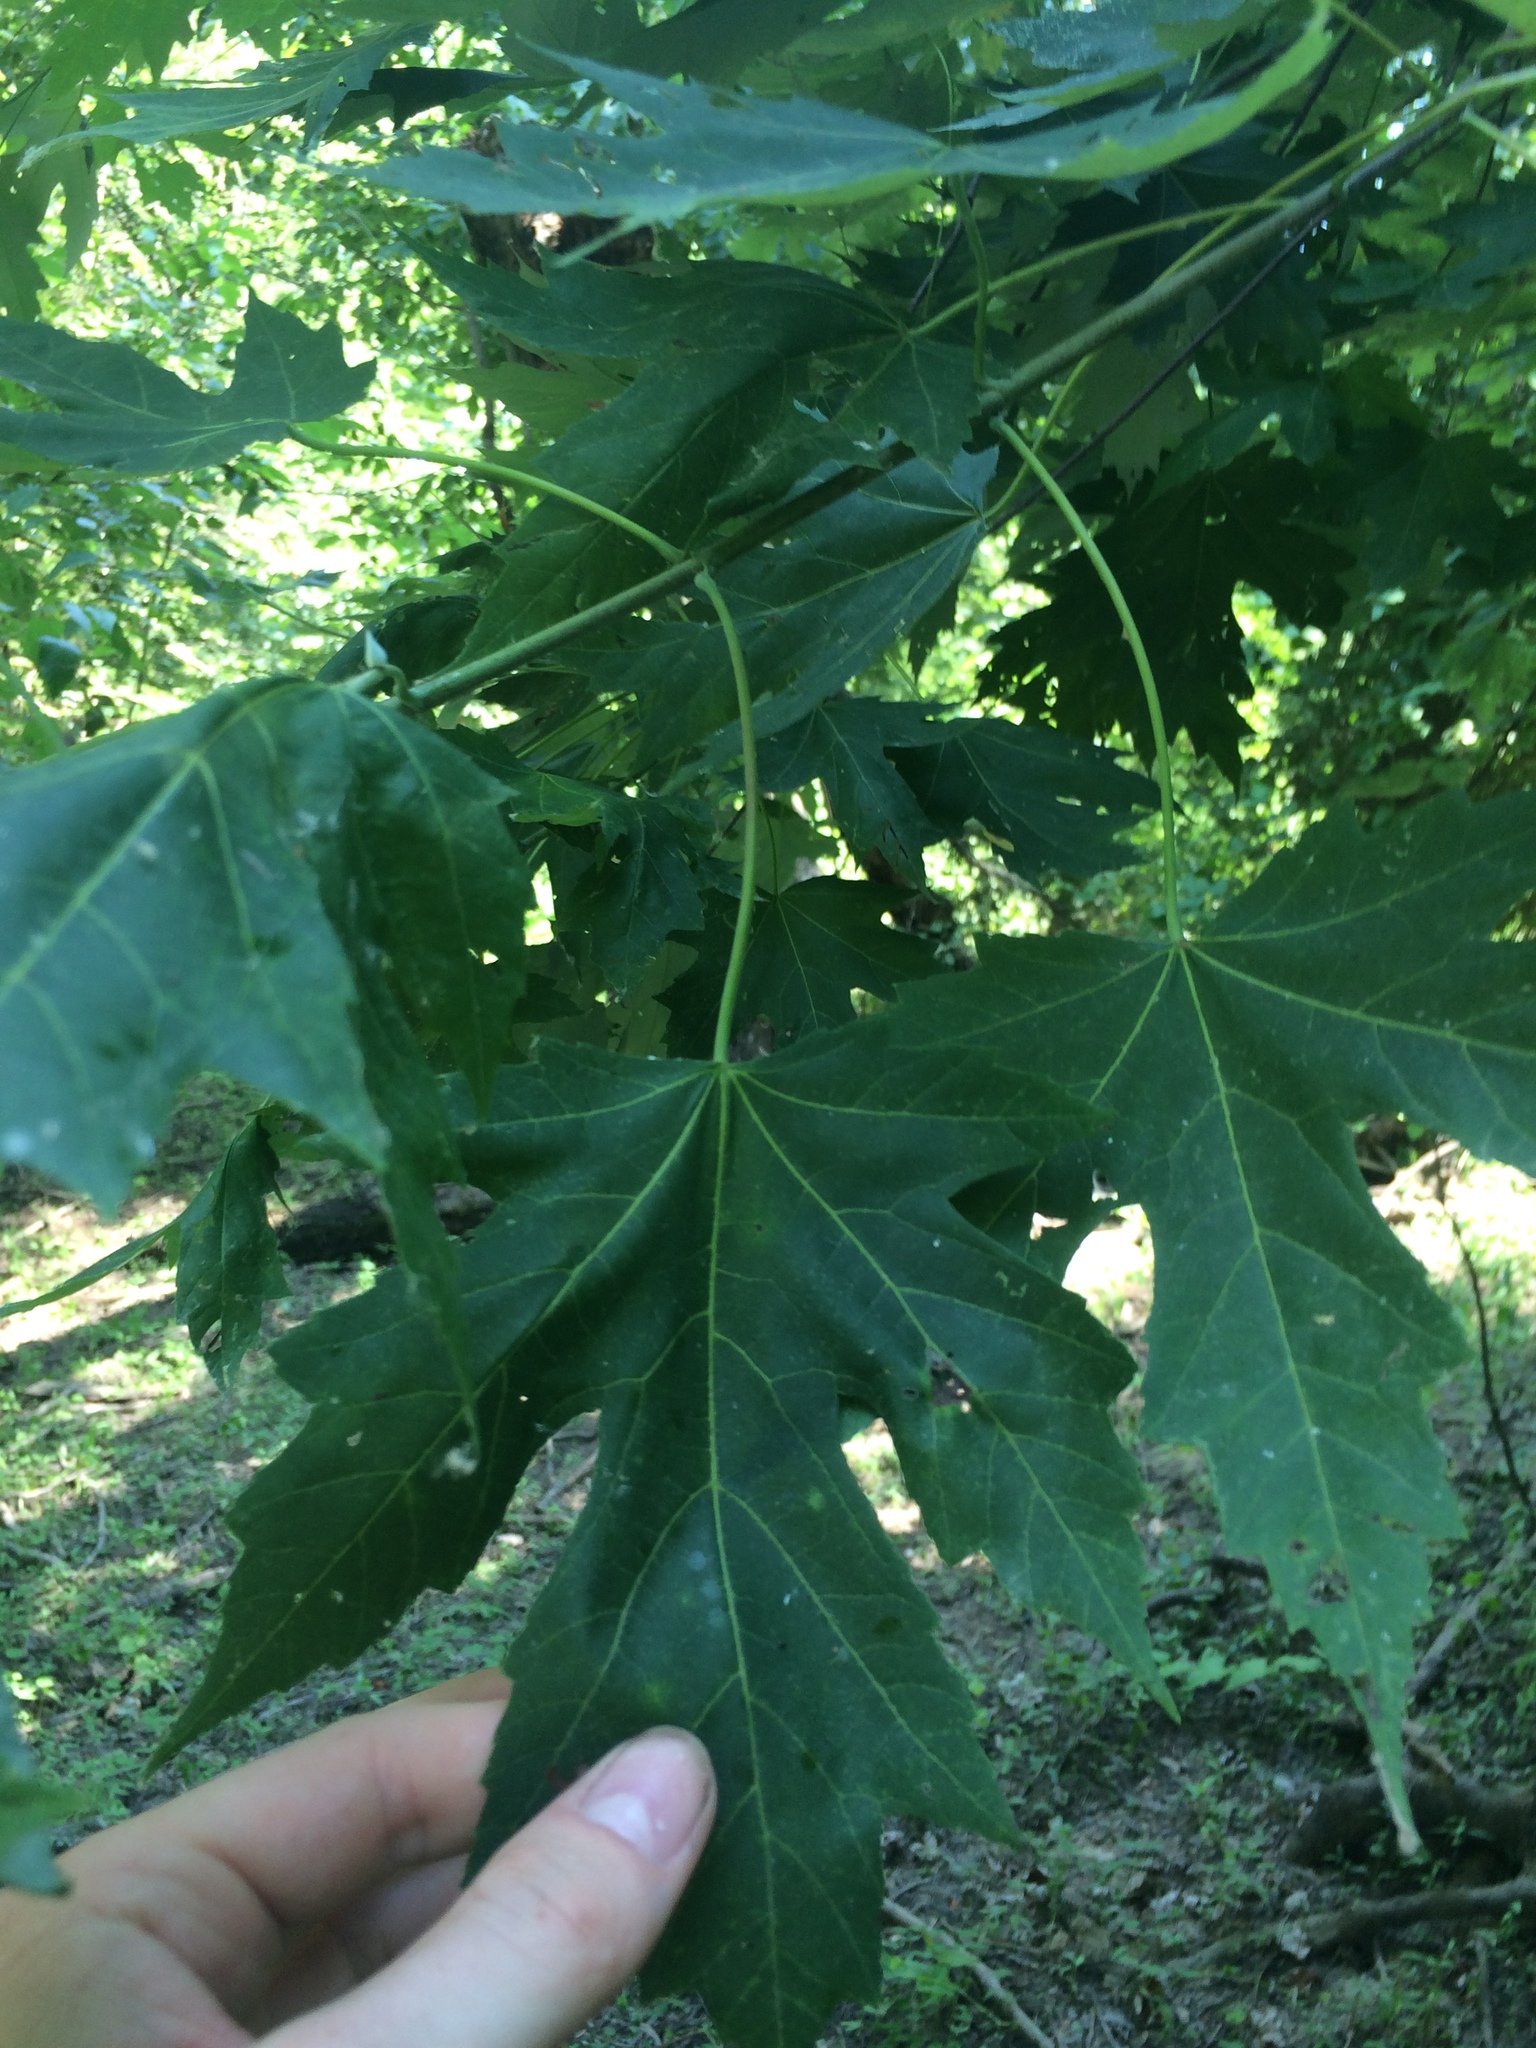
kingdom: Plantae
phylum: Tracheophyta
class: Magnoliopsida
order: Sapindales
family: Sapindaceae
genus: Acer
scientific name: Acer saccharinum
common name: Silver maple
